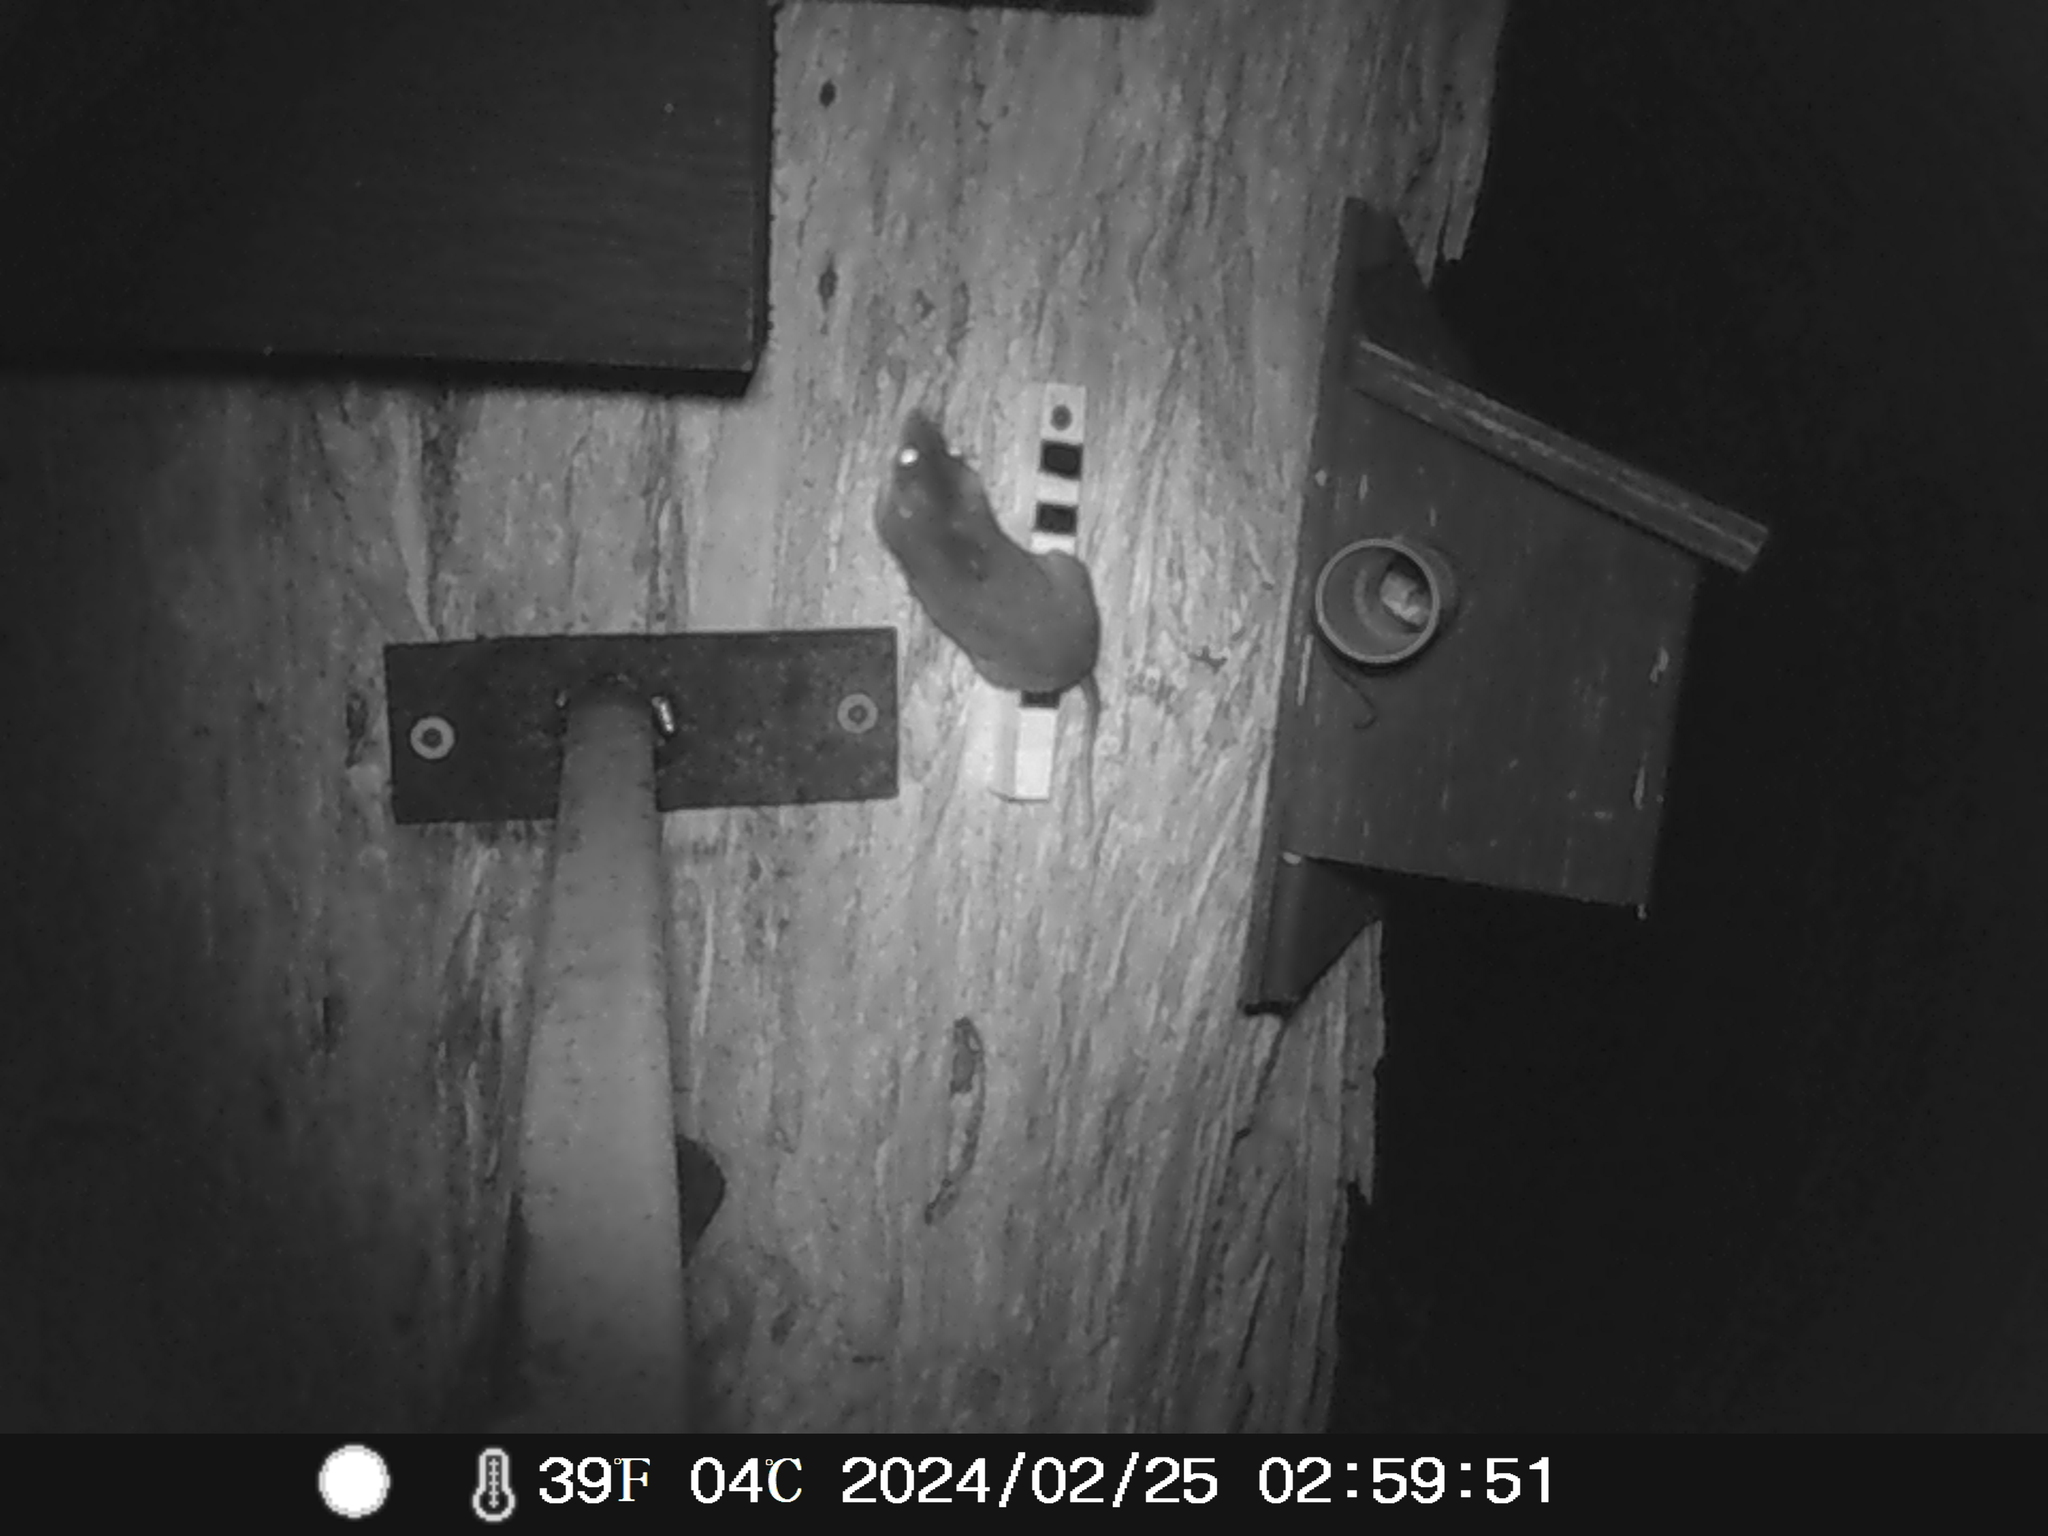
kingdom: Animalia
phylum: Chordata
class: Mammalia
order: Dasyuromorphia
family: Dasyuridae
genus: Antechinus
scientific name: Antechinus agilis
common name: Agile antechinus
